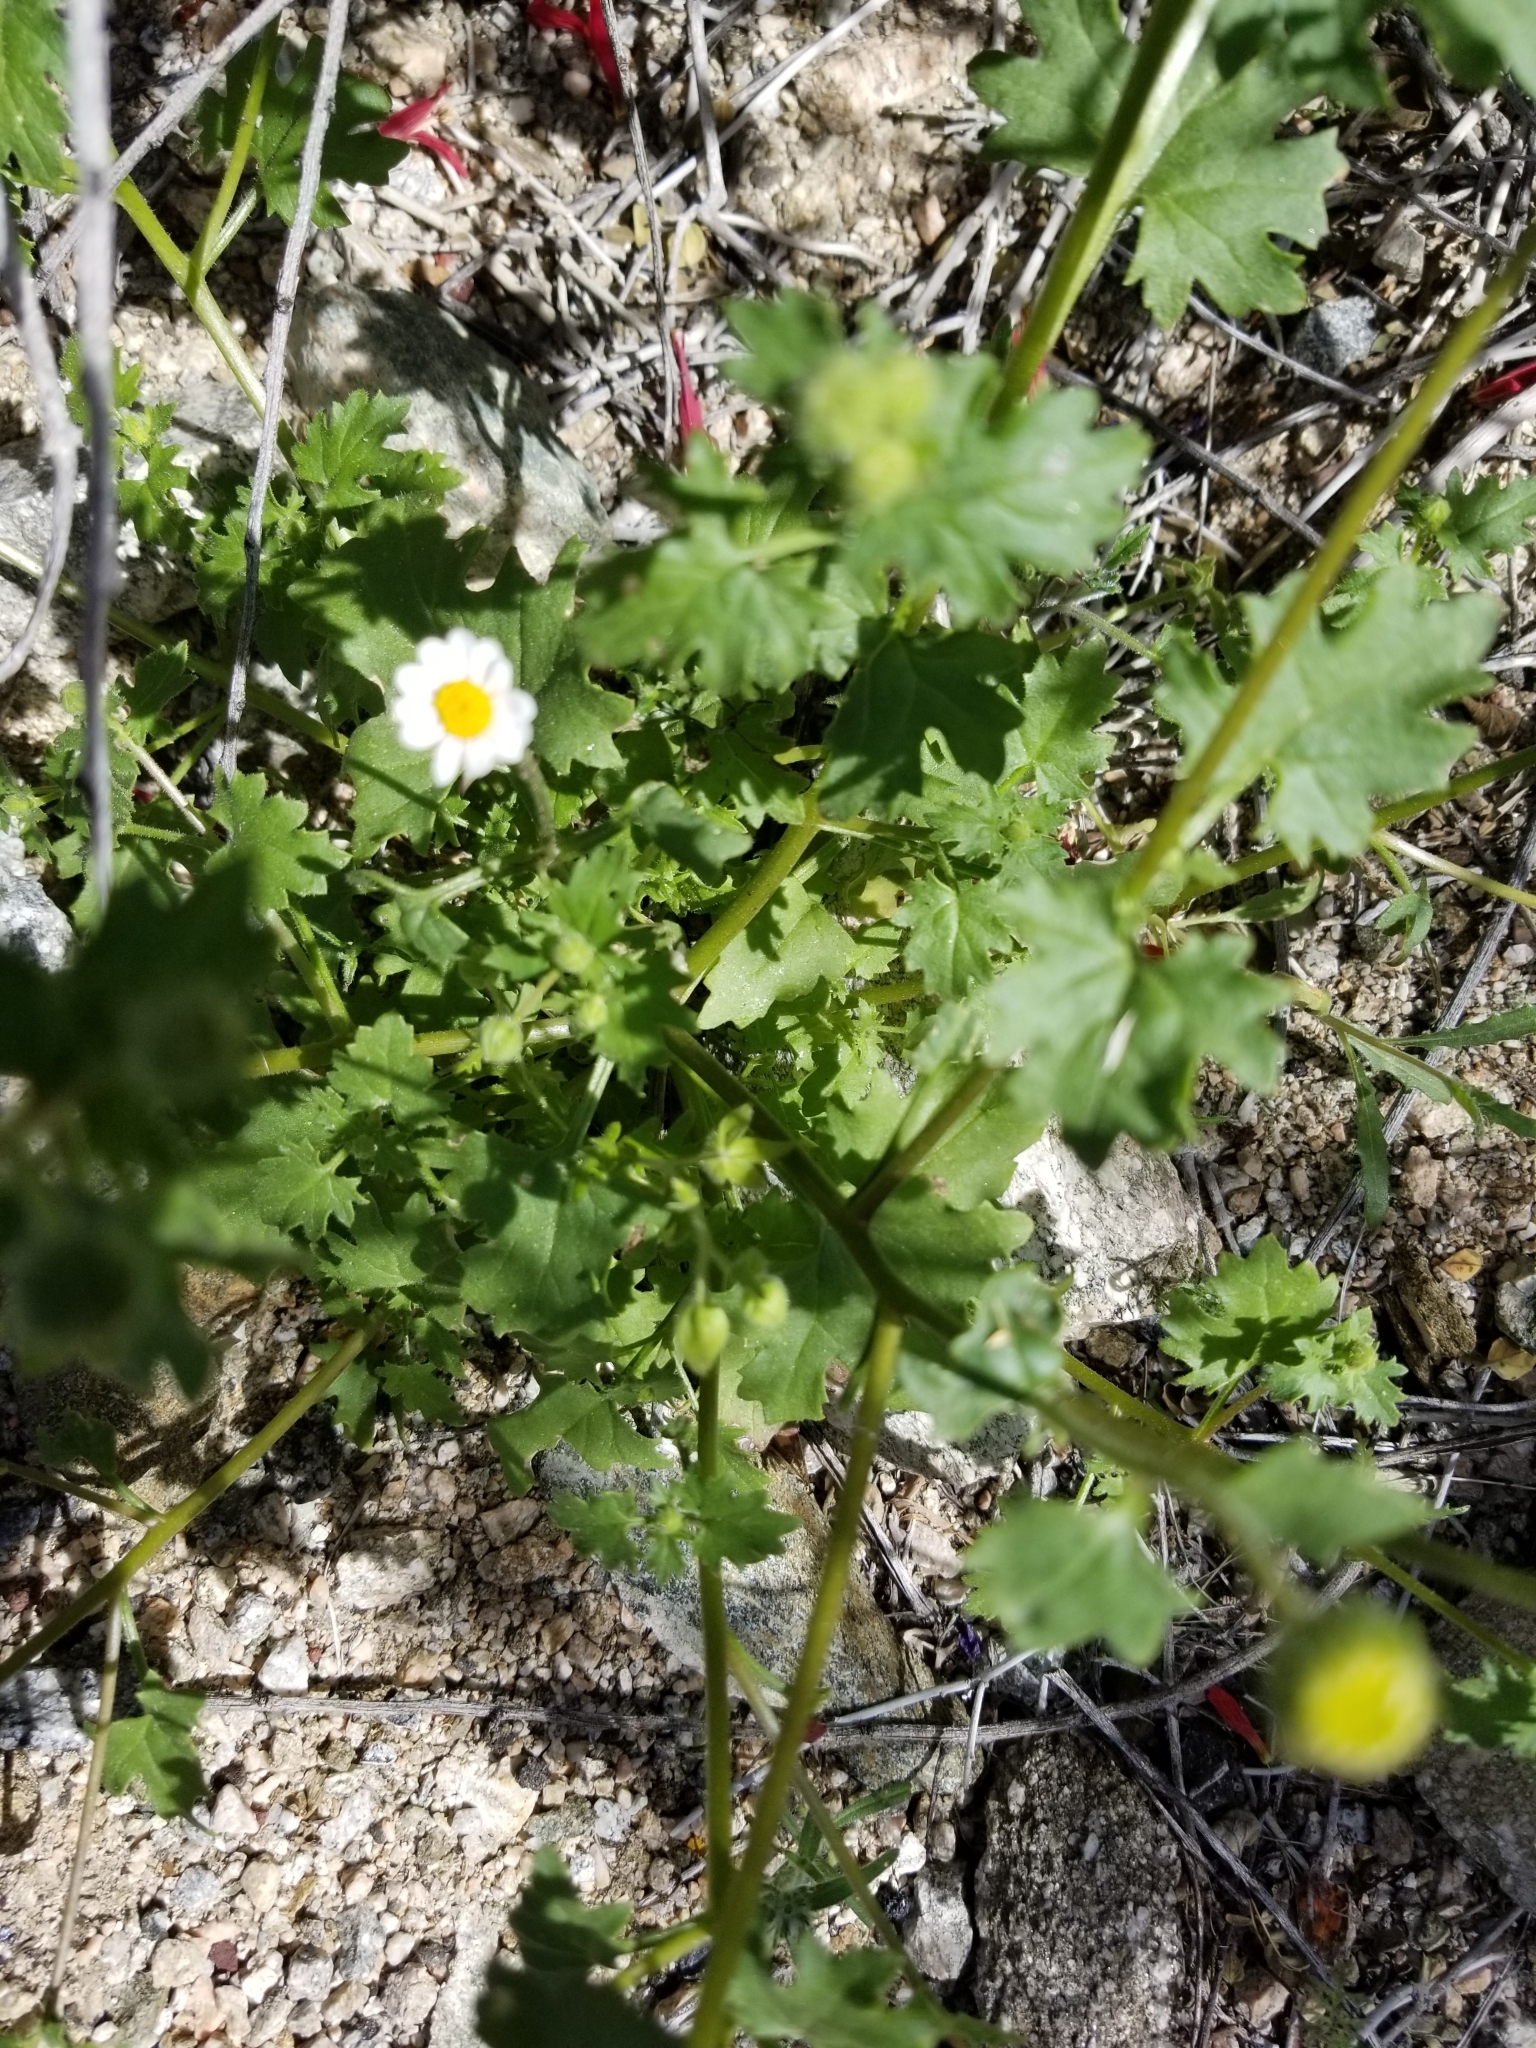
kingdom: Plantae
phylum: Tracheophyta
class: Magnoliopsida
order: Asterales
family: Asteraceae
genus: Laphamia
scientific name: Laphamia emoryi
